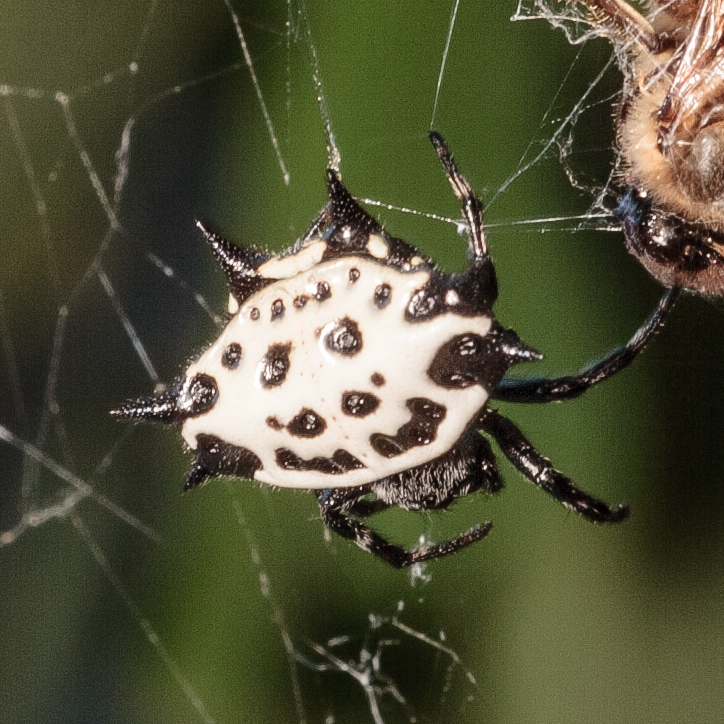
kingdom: Animalia
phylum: Arthropoda
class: Arachnida
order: Araneae
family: Araneidae
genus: Gasteracantha
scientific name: Gasteracantha cancriformis
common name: Orb weavers
